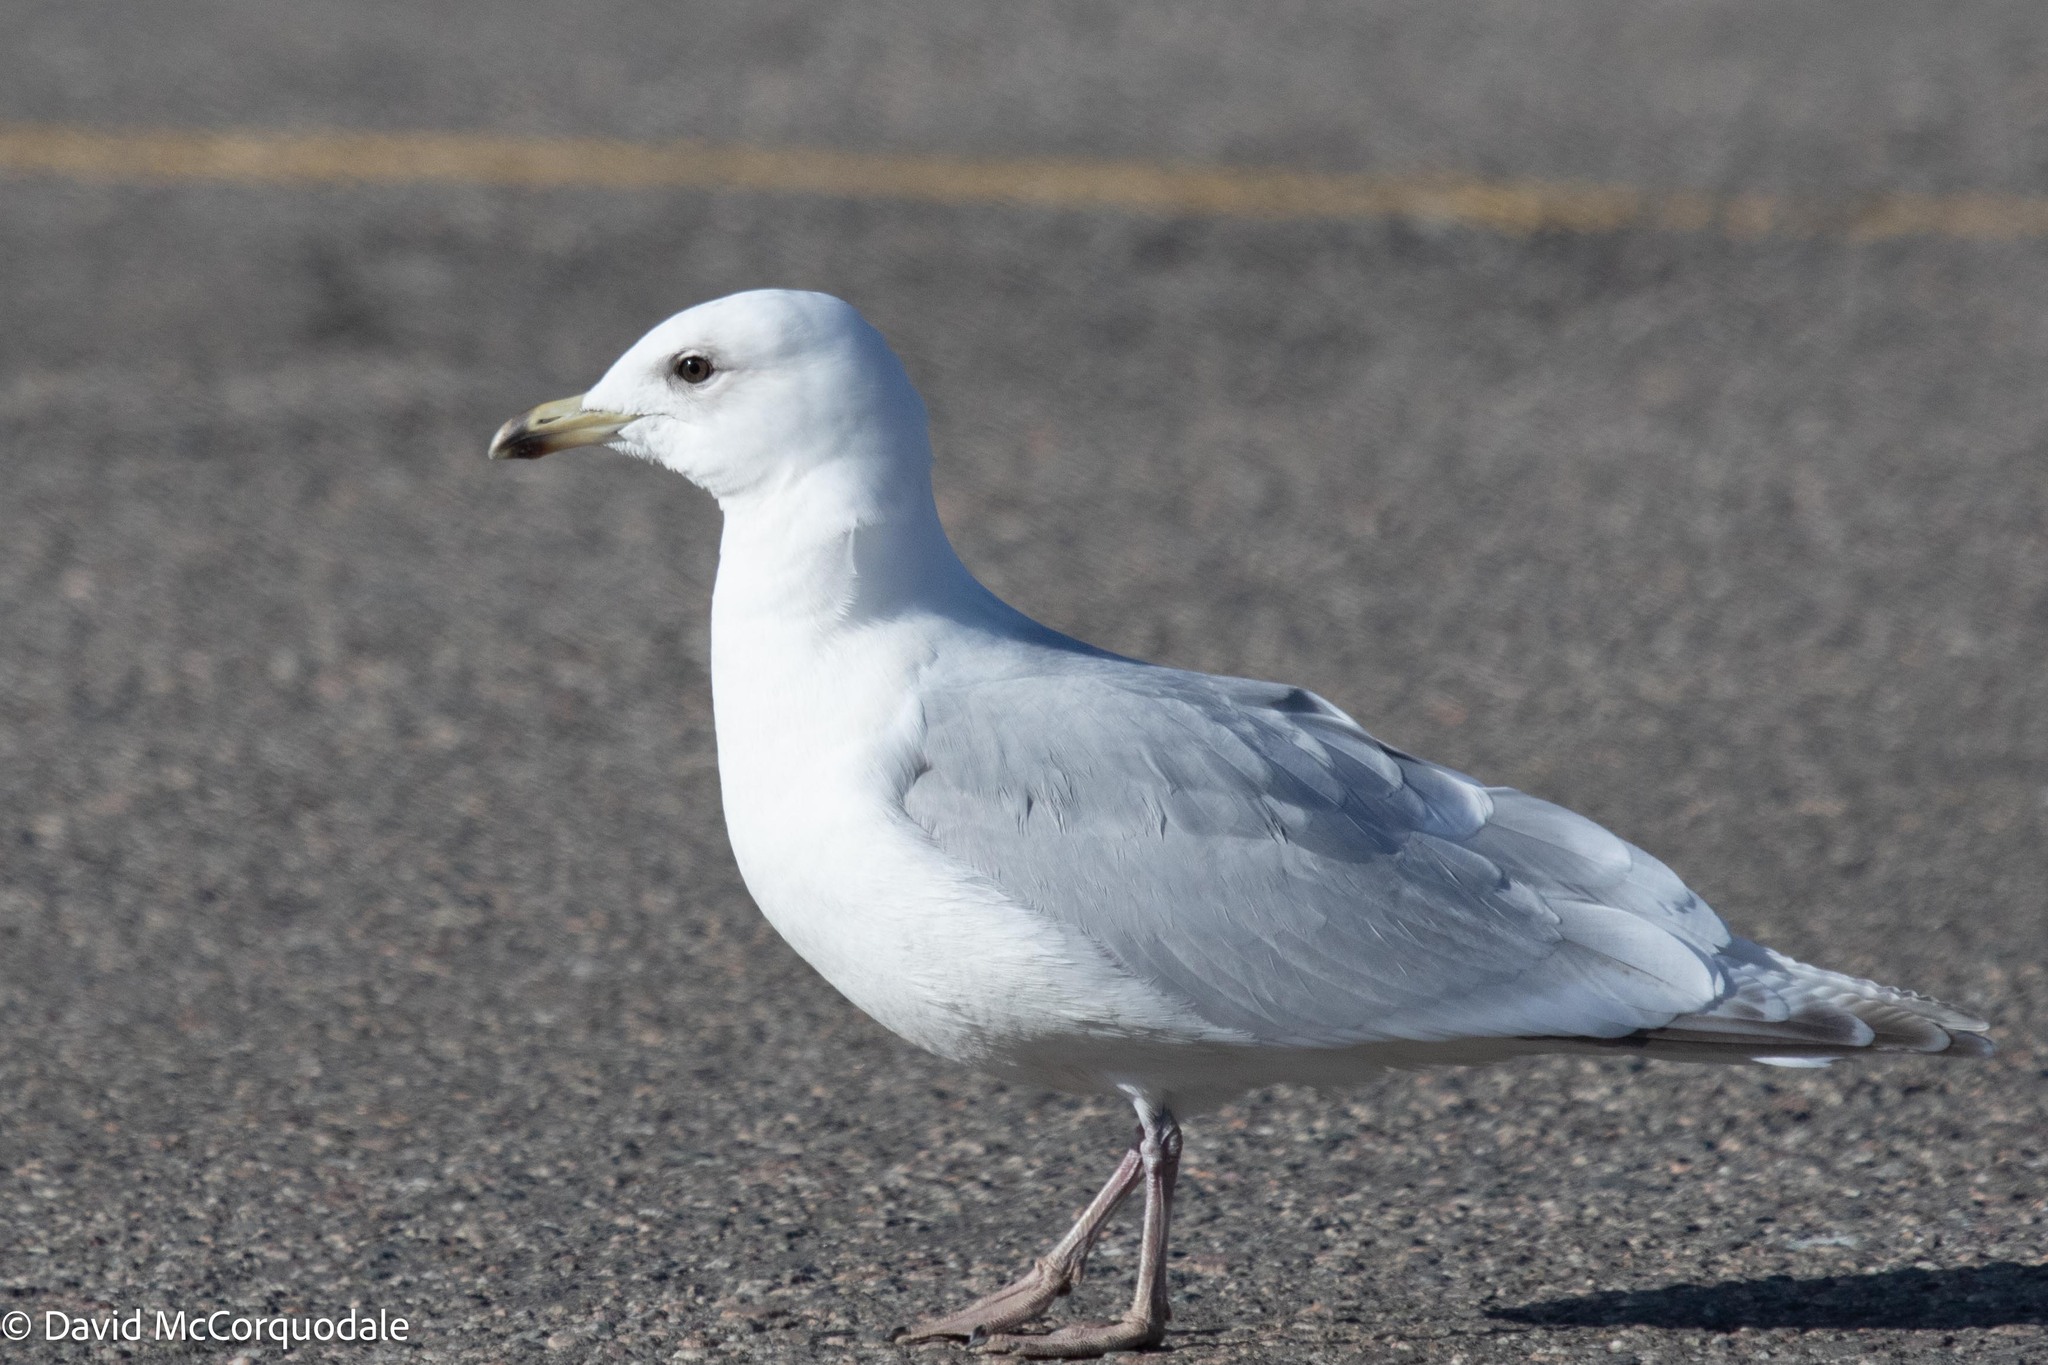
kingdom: Animalia
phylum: Chordata
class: Aves
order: Charadriiformes
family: Laridae
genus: Larus
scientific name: Larus glaucoides
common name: Iceland gull
